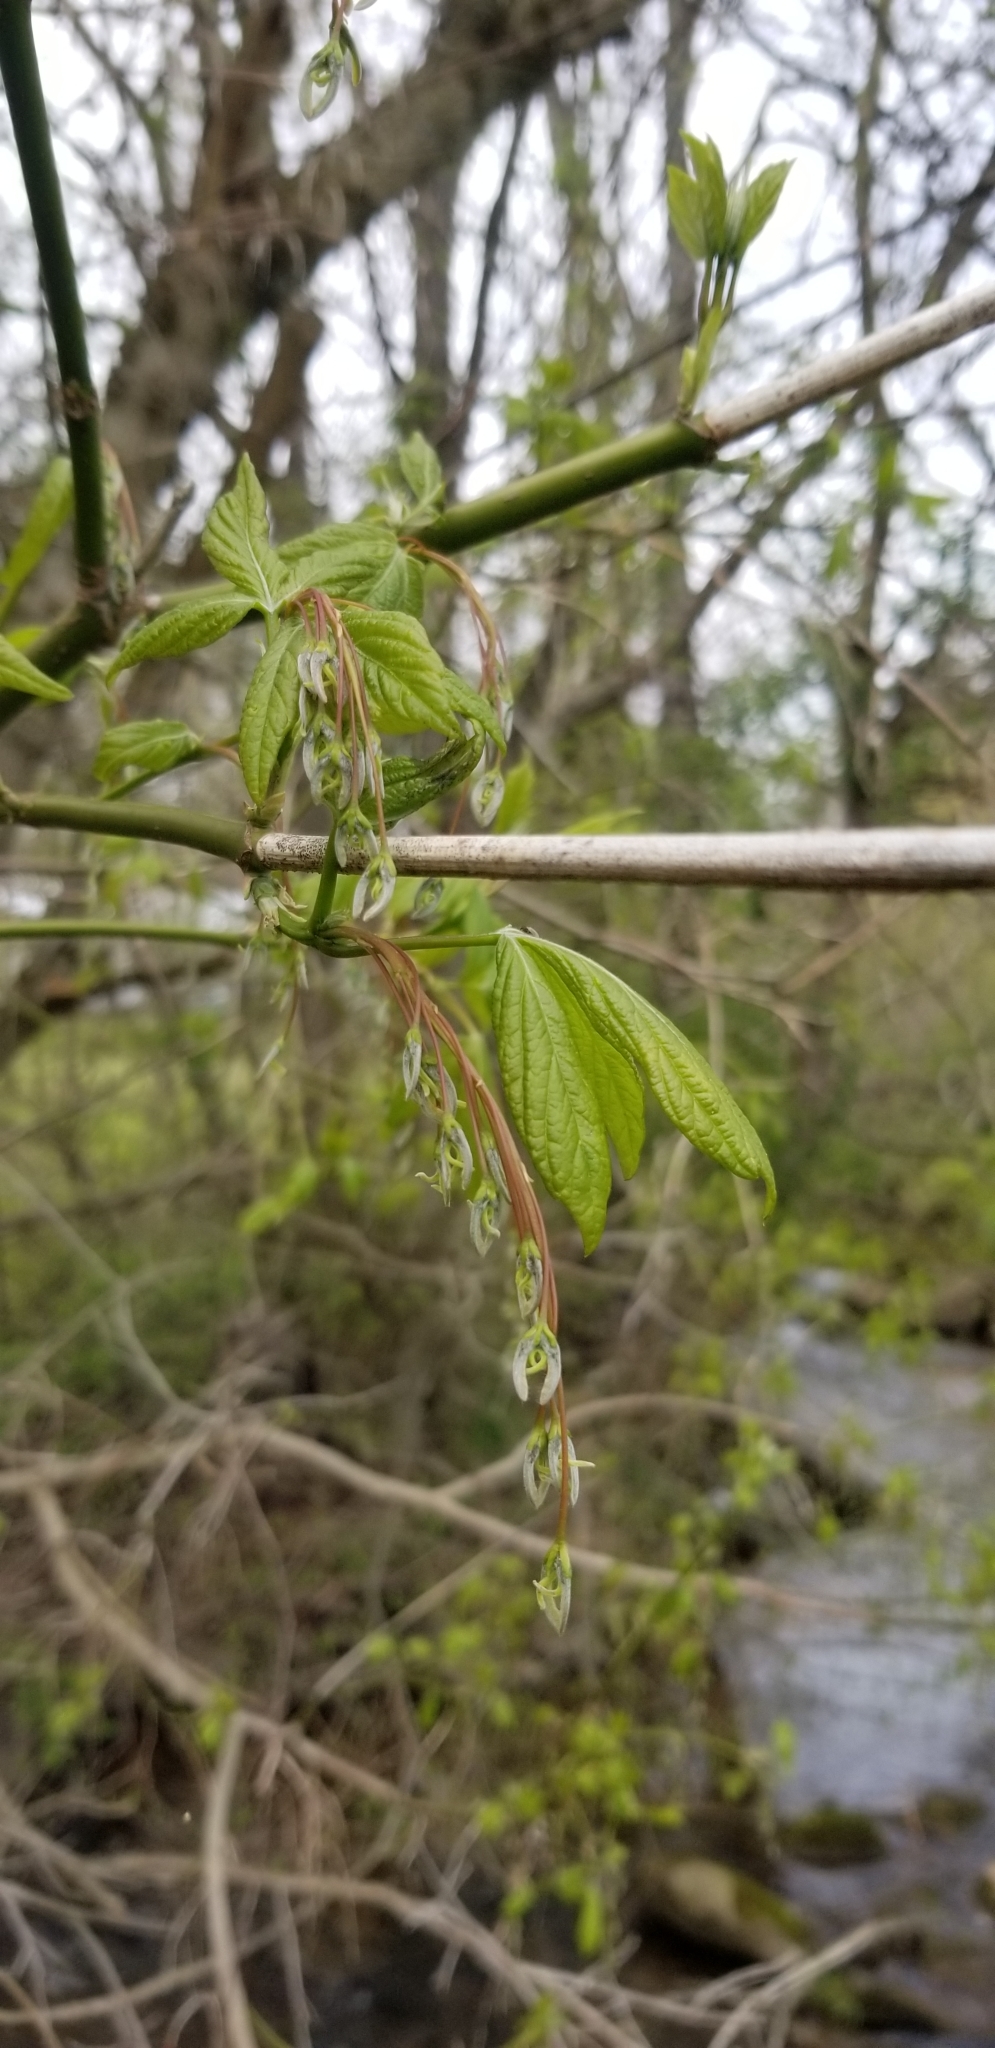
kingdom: Plantae
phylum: Tracheophyta
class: Magnoliopsida
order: Sapindales
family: Sapindaceae
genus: Acer
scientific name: Acer negundo
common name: Ashleaf maple
